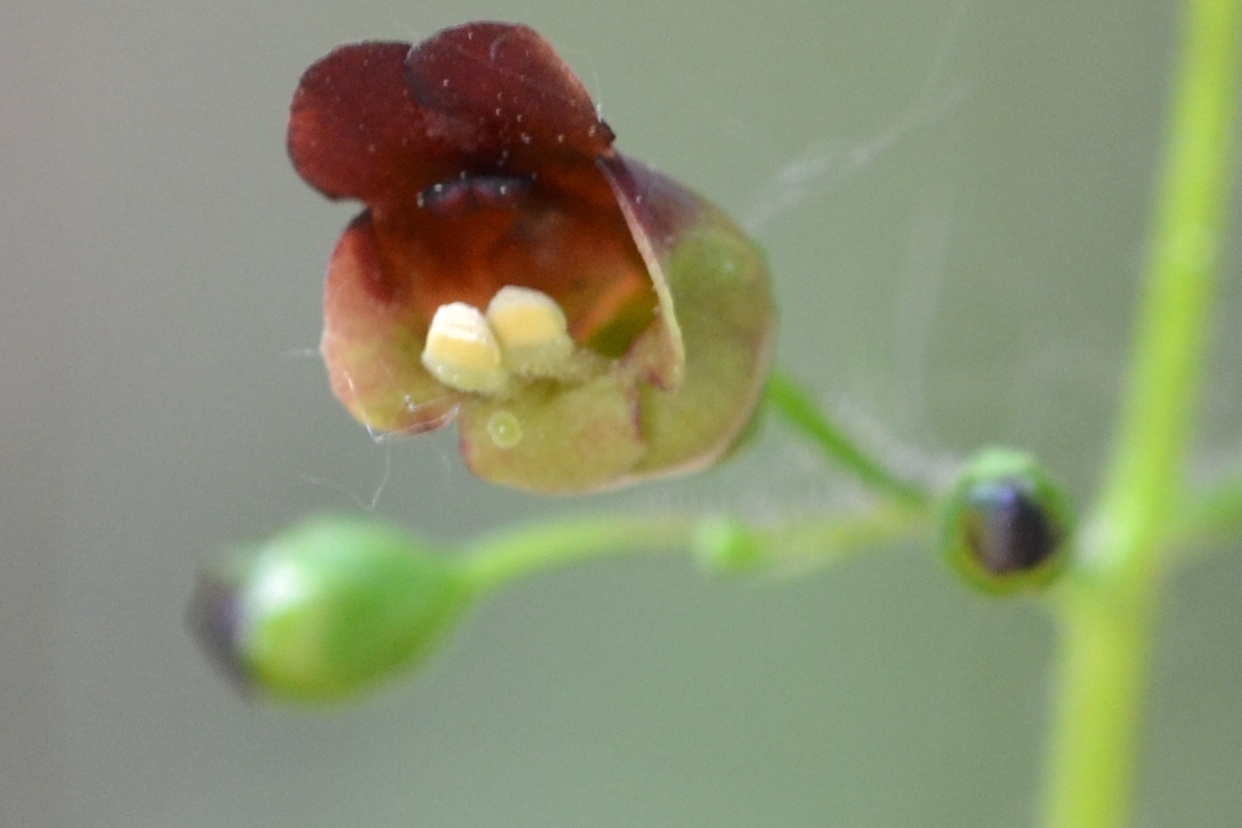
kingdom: Plantae
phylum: Tracheophyta
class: Magnoliopsida
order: Lamiales
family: Scrophulariaceae
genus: Scrophularia
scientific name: Scrophularia nodosa
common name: Common figwort
